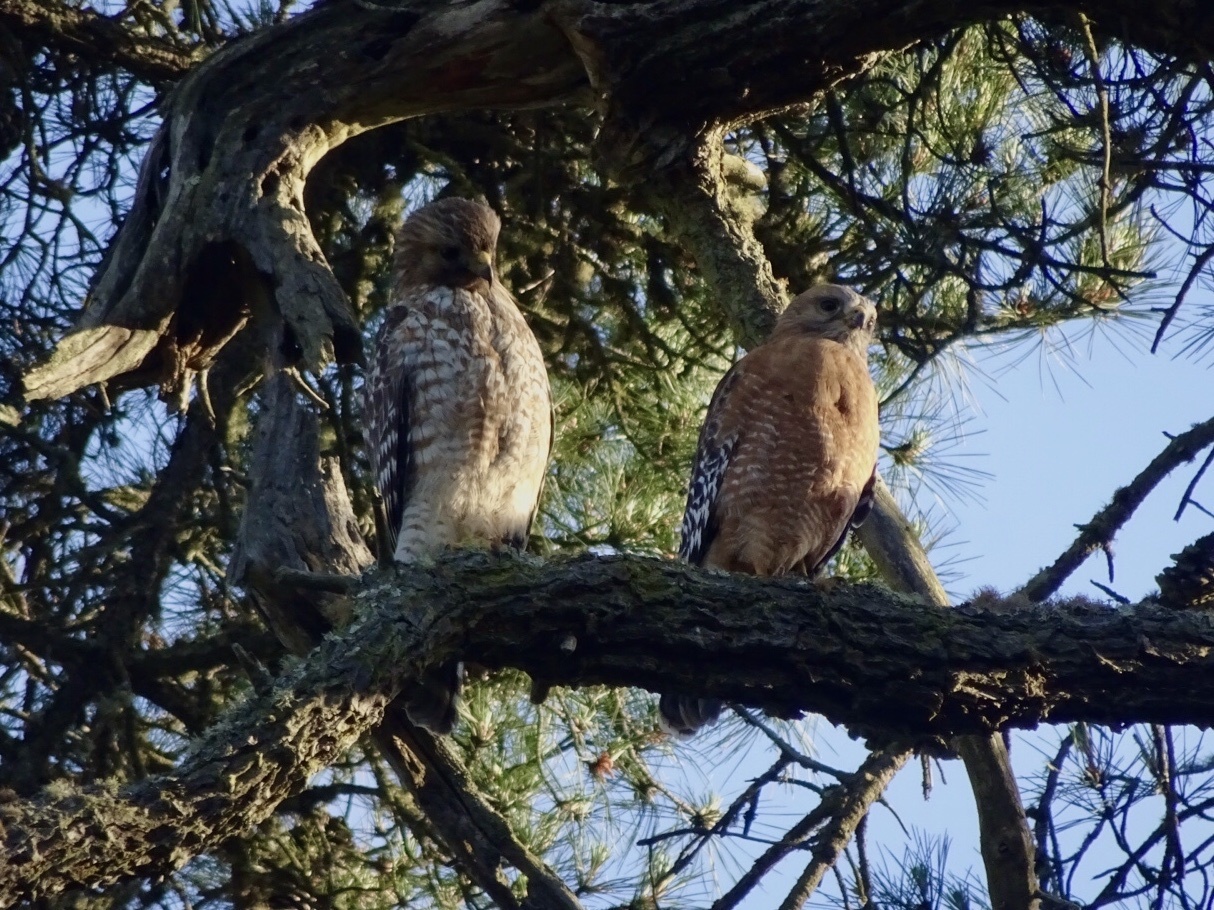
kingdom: Animalia
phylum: Chordata
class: Aves
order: Accipitriformes
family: Accipitridae
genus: Buteo
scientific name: Buteo lineatus
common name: Red-shouldered hawk
